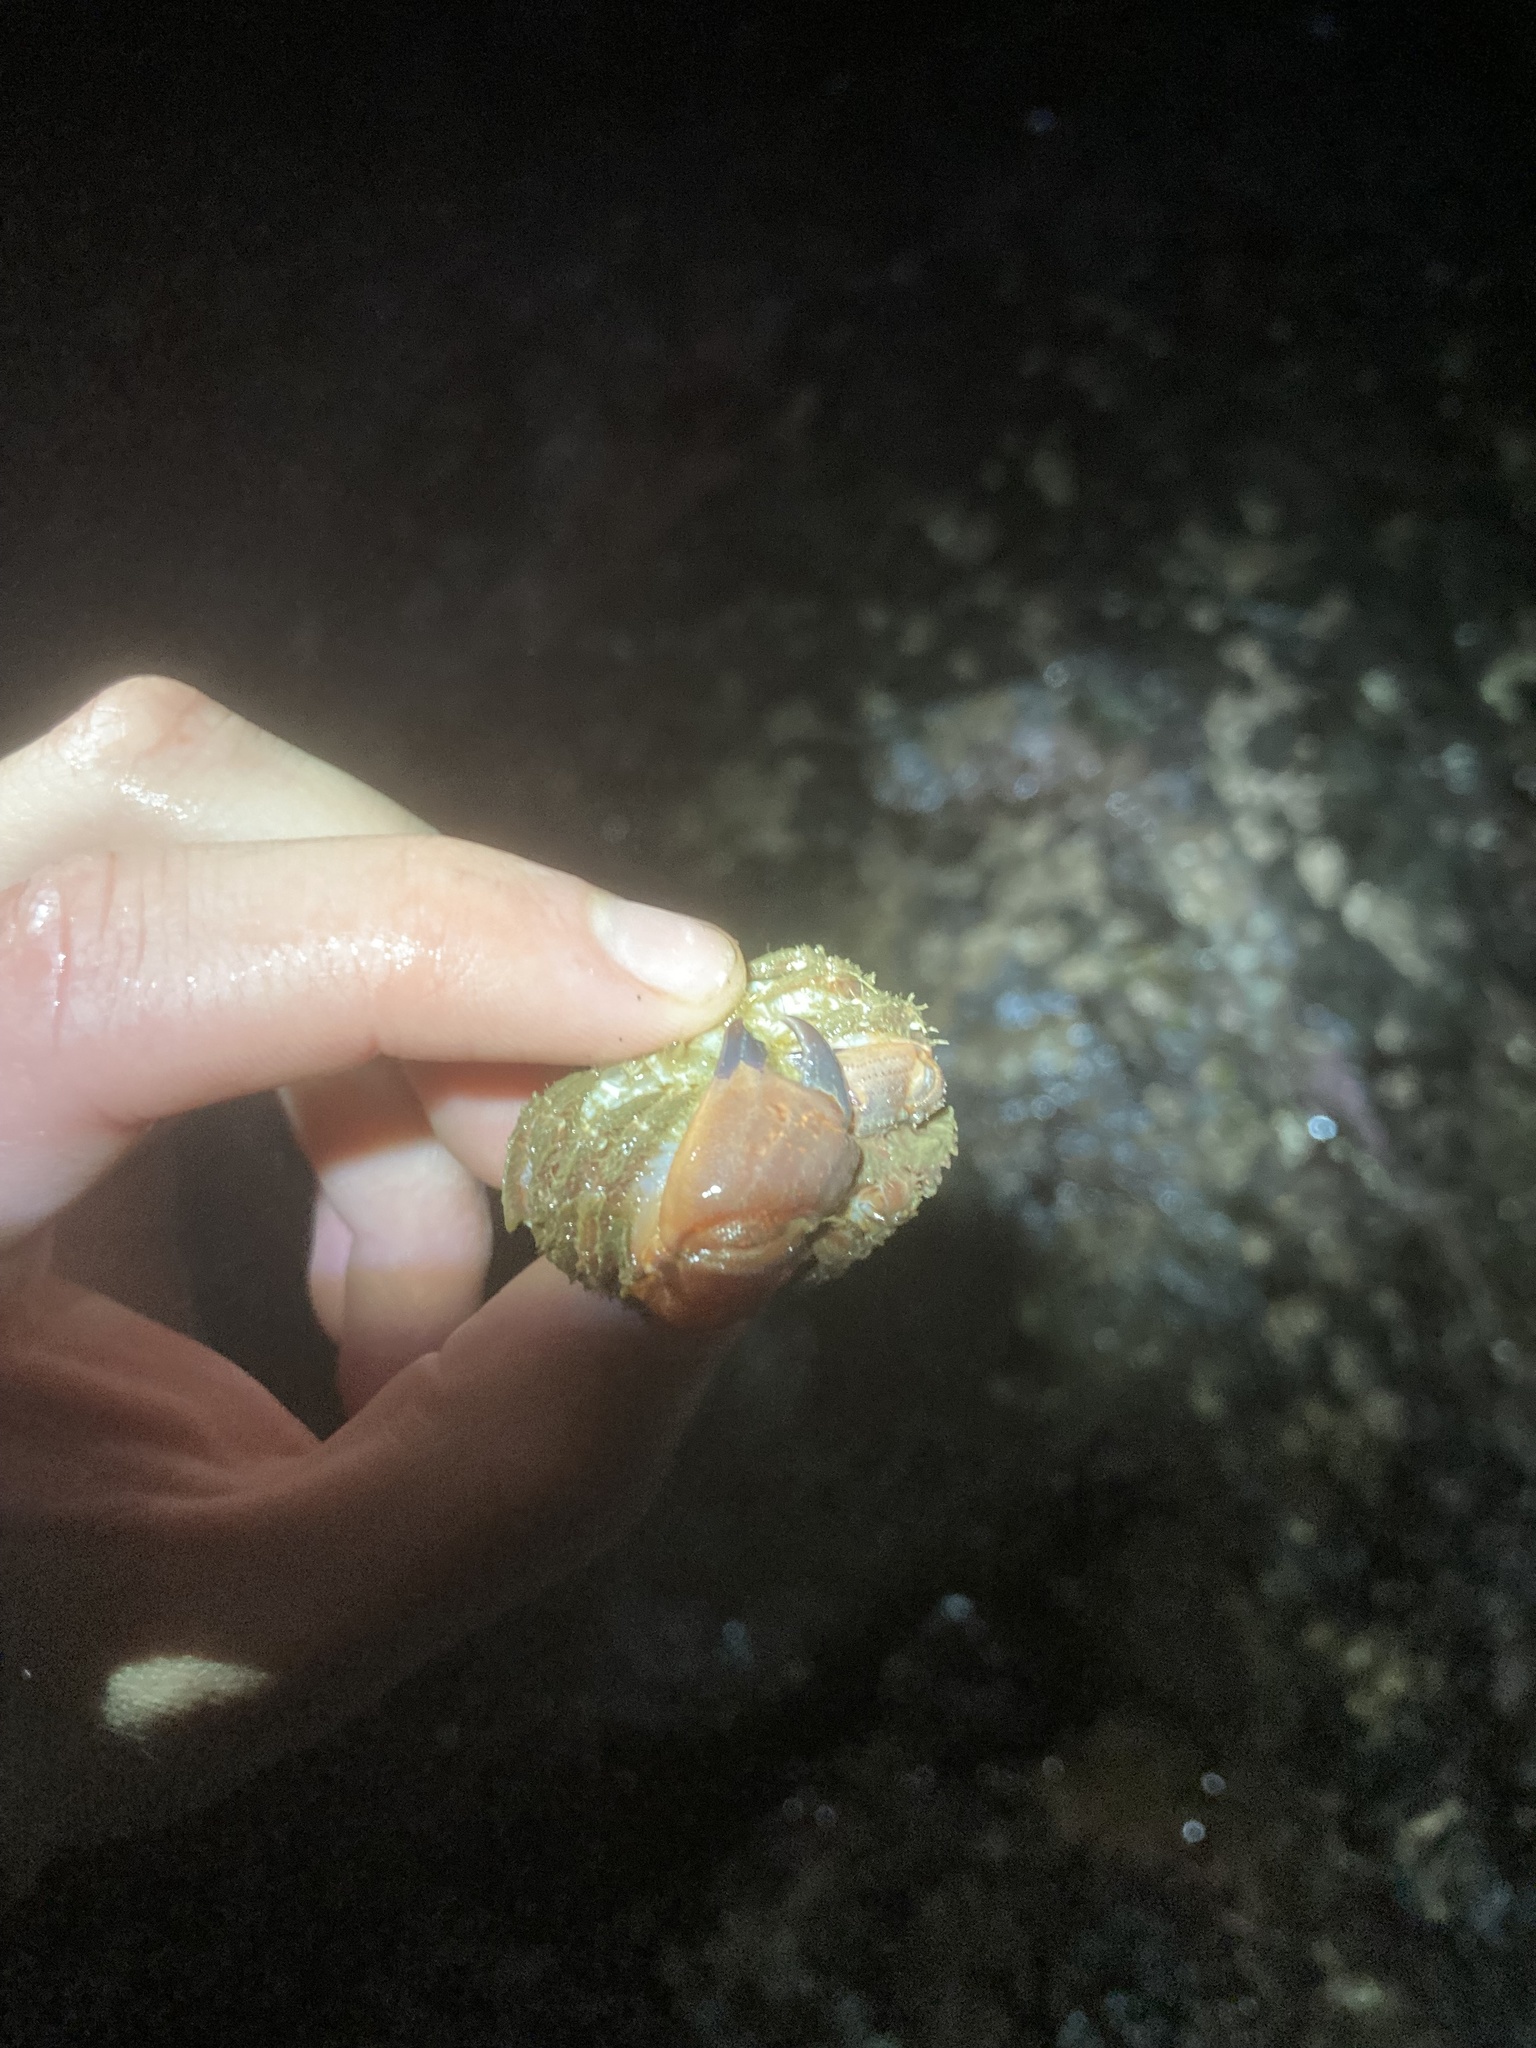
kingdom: Animalia
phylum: Arthropoda
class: Malacostraca
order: Decapoda
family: Cancridae
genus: Glebocarcinus
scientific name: Glebocarcinus oregonensis
